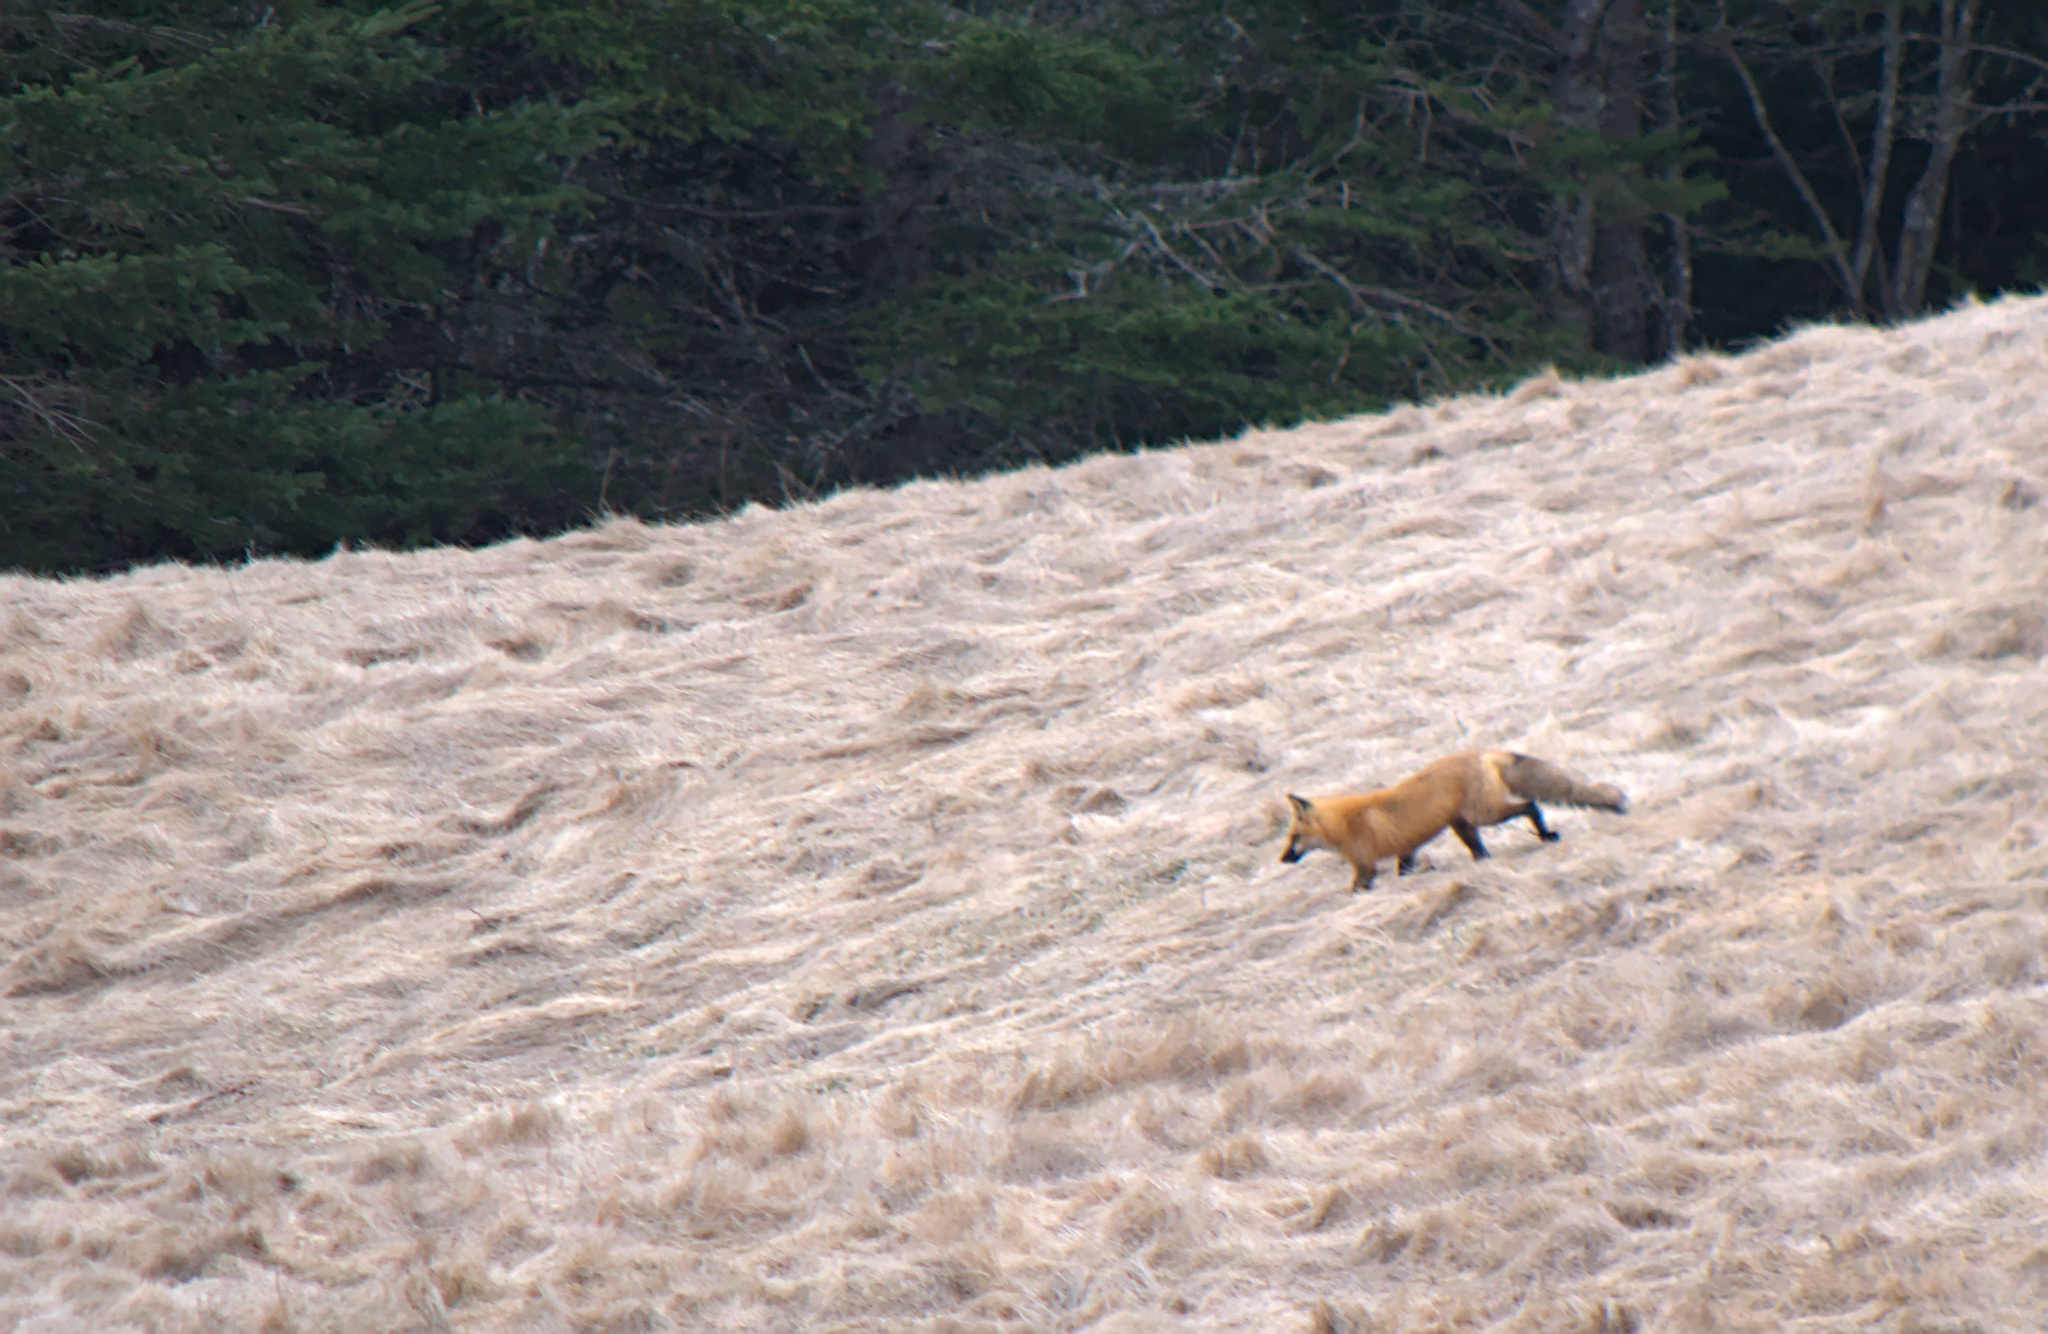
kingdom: Animalia
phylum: Chordata
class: Mammalia
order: Carnivora
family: Canidae
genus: Vulpes
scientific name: Vulpes vulpes
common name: Red fox
